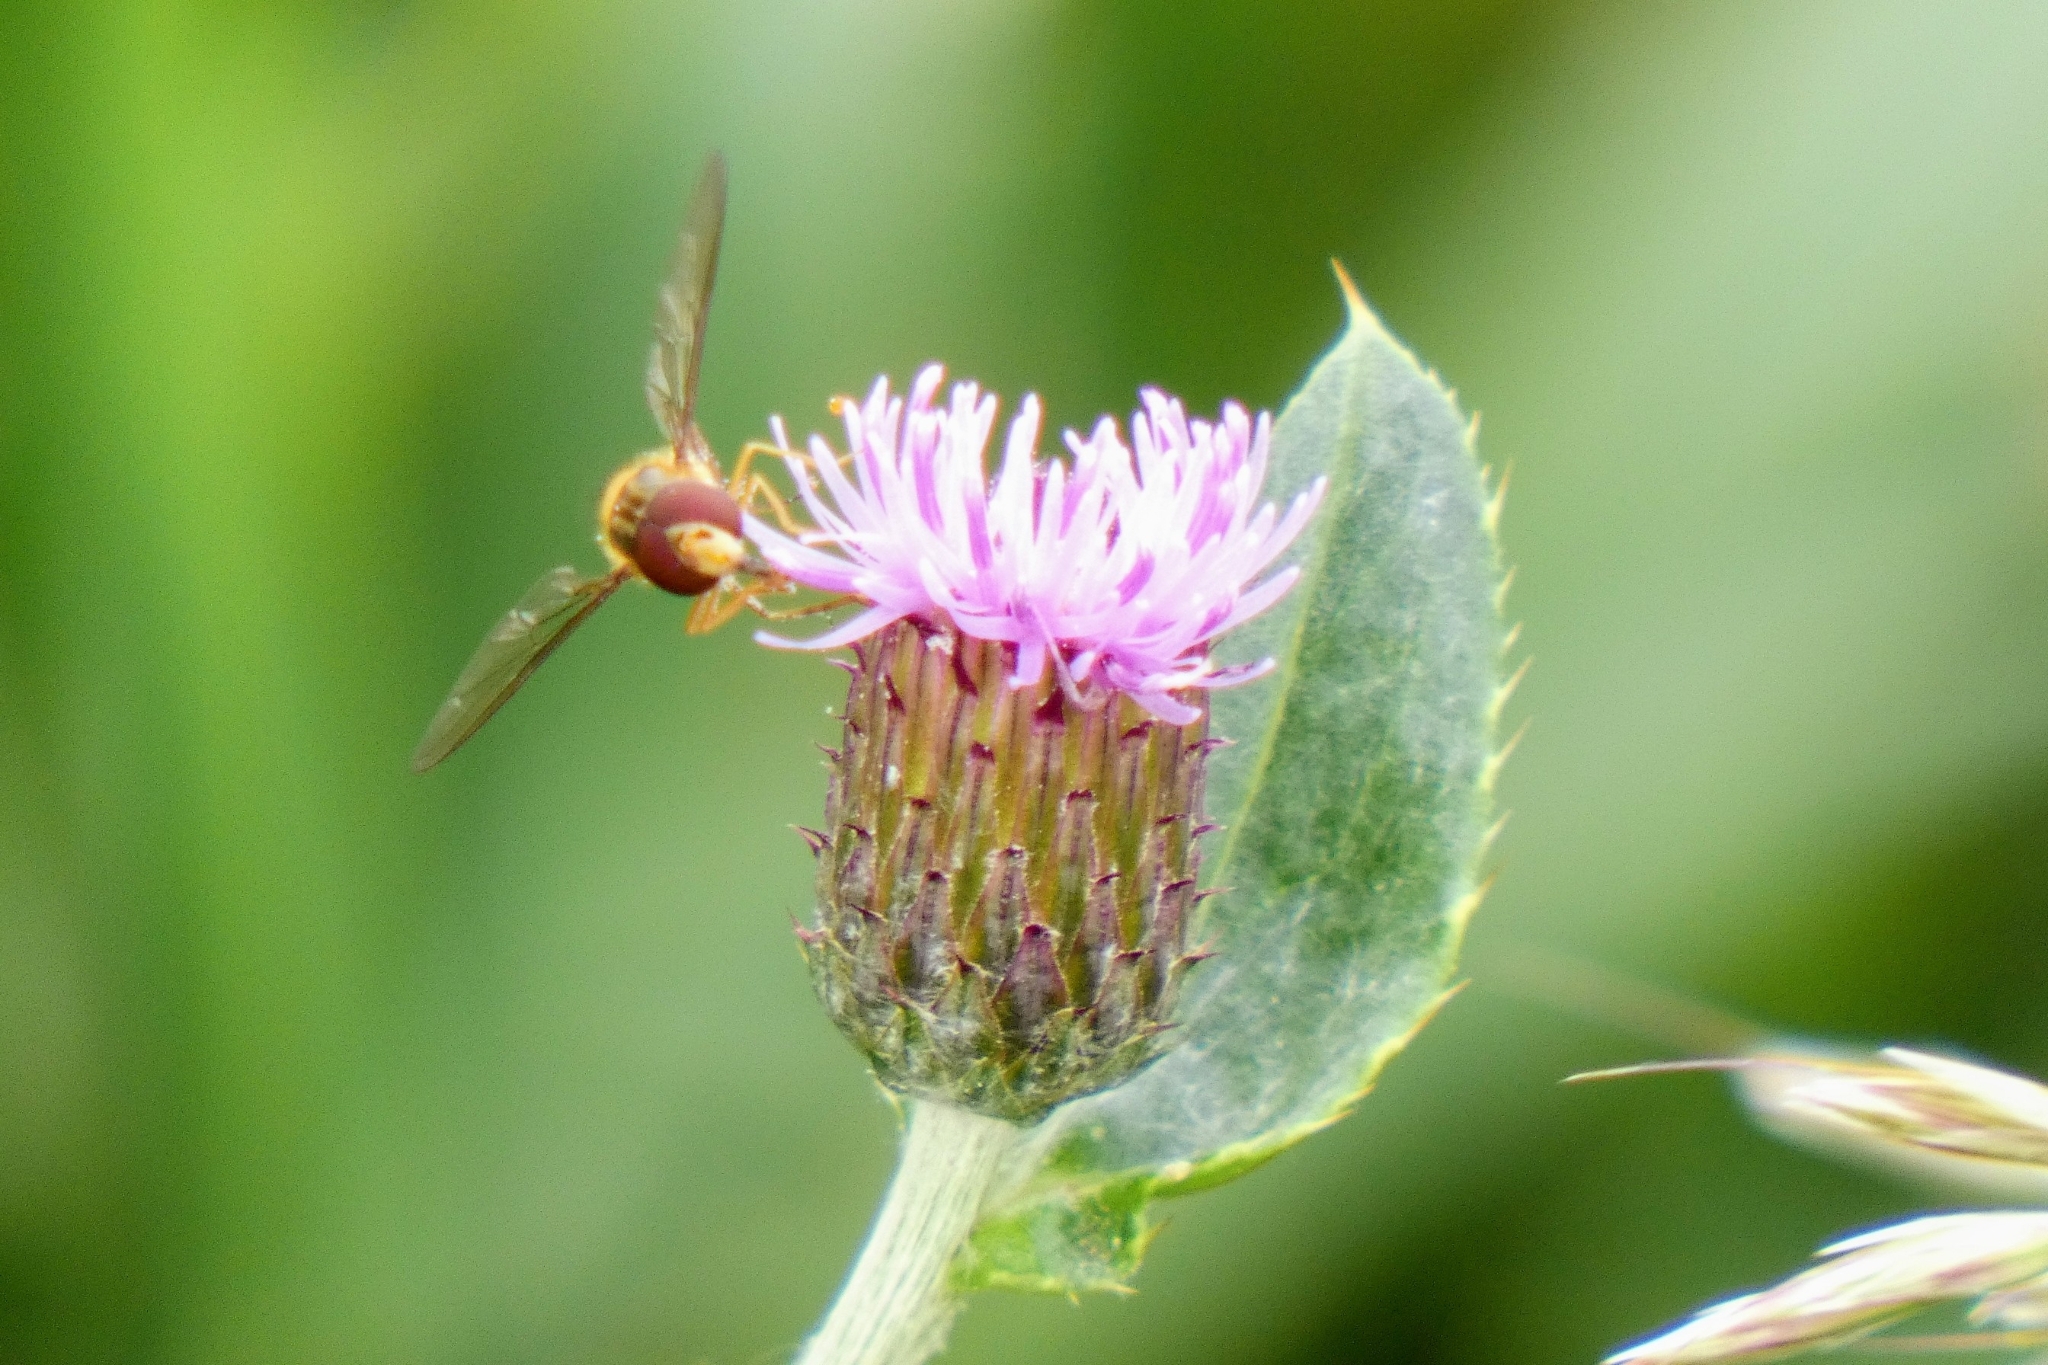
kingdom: Animalia
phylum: Arthropoda
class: Insecta
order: Diptera
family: Syrphidae
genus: Episyrphus
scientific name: Episyrphus balteatus
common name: Marmalade hoverfly
